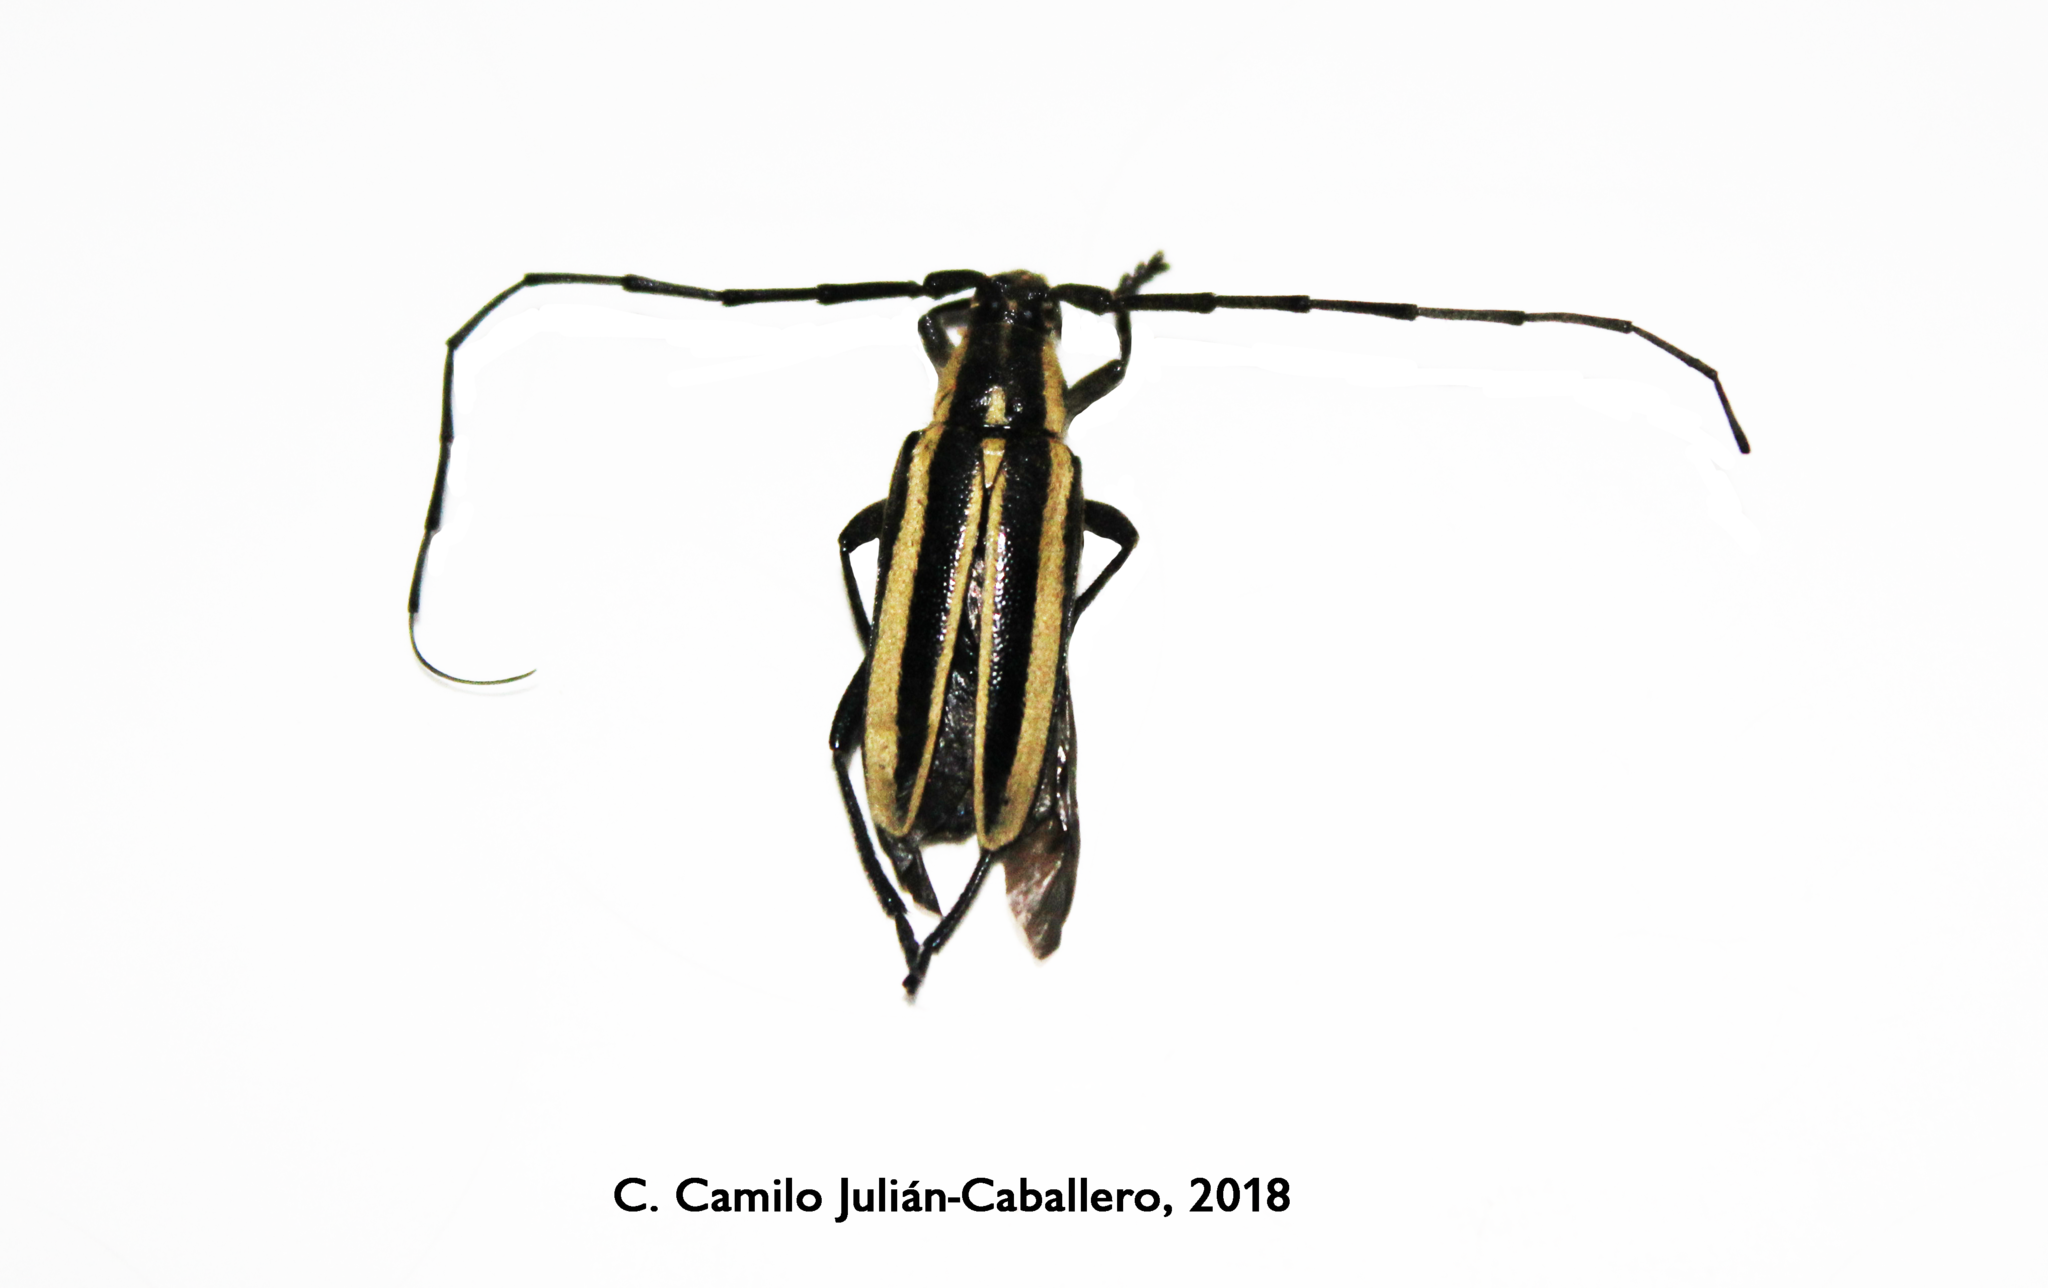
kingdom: Animalia
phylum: Arthropoda
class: Insecta
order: Coleoptera
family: Cerambycidae
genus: Sphaenothecus
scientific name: Sphaenothecus trilineatus
